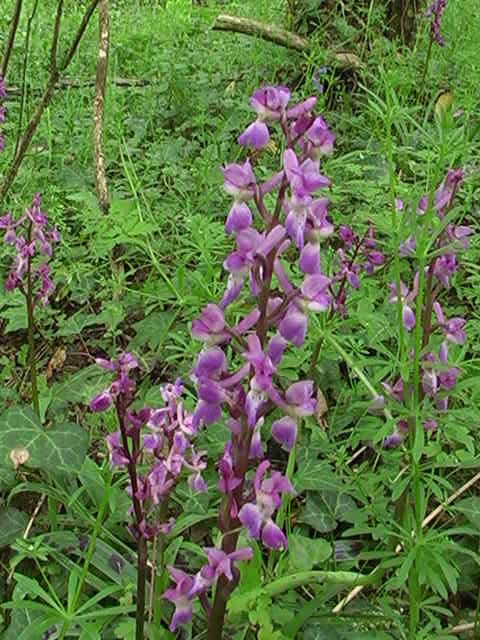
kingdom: Plantae
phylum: Tracheophyta
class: Liliopsida
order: Asparagales
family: Orchidaceae
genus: Orchis
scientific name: Orchis mascula
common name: Early-purple orchid
